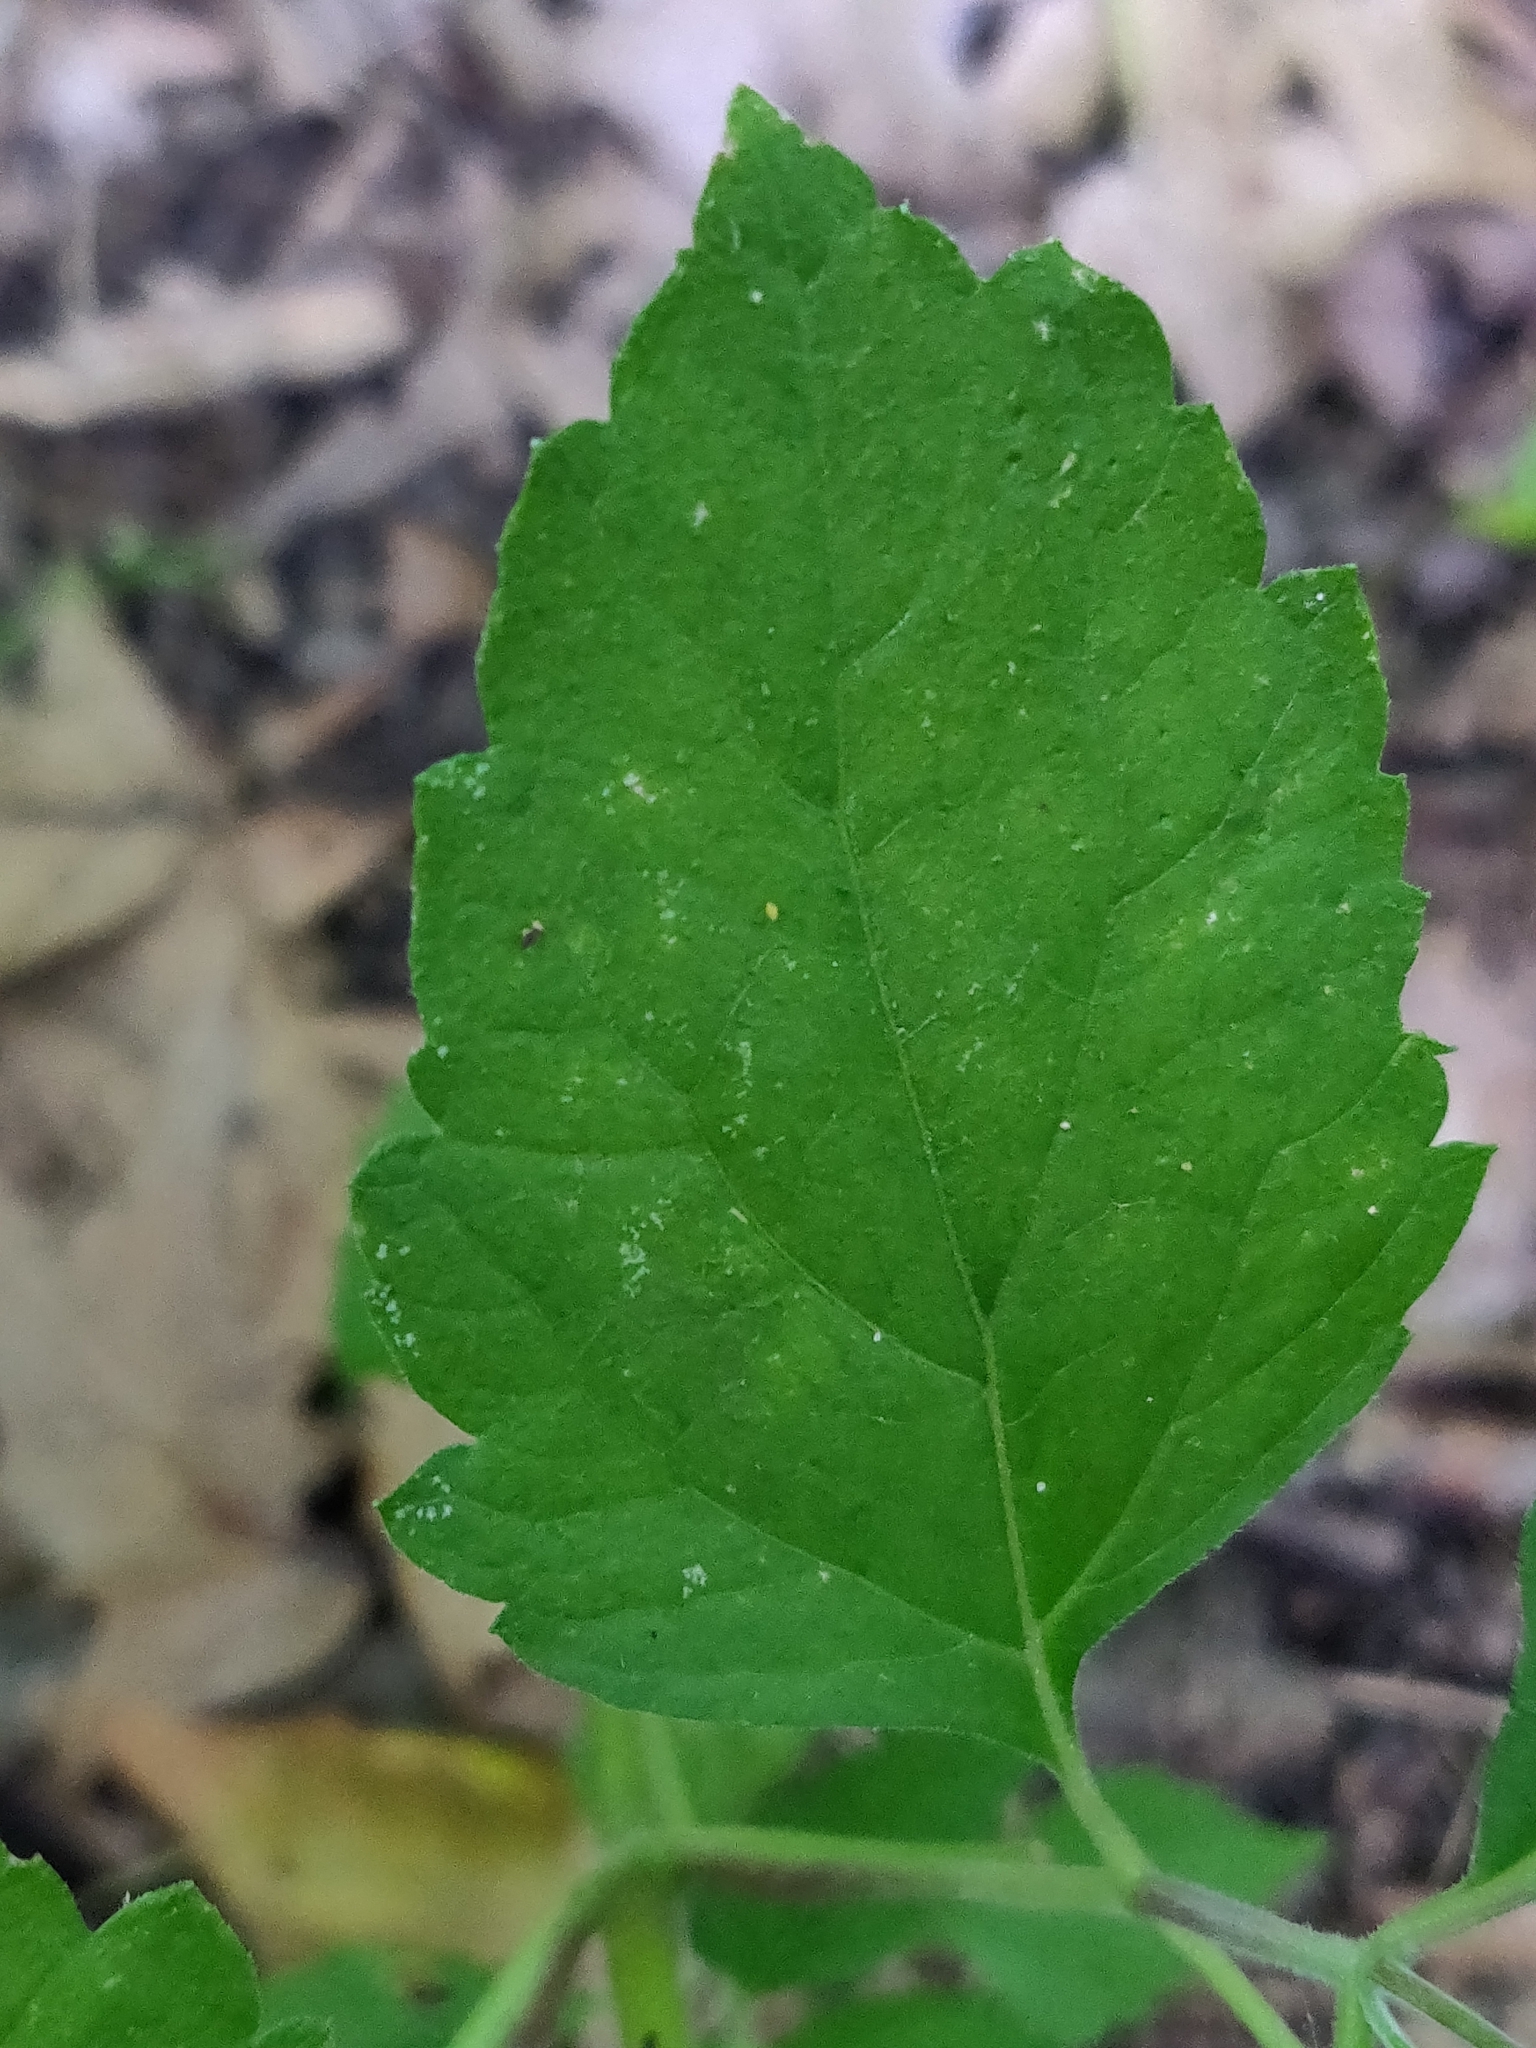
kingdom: Plantae
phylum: Tracheophyta
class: Magnoliopsida
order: Lamiales
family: Phrymaceae
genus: Phryma
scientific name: Phryma leptostachya
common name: American lopseed
